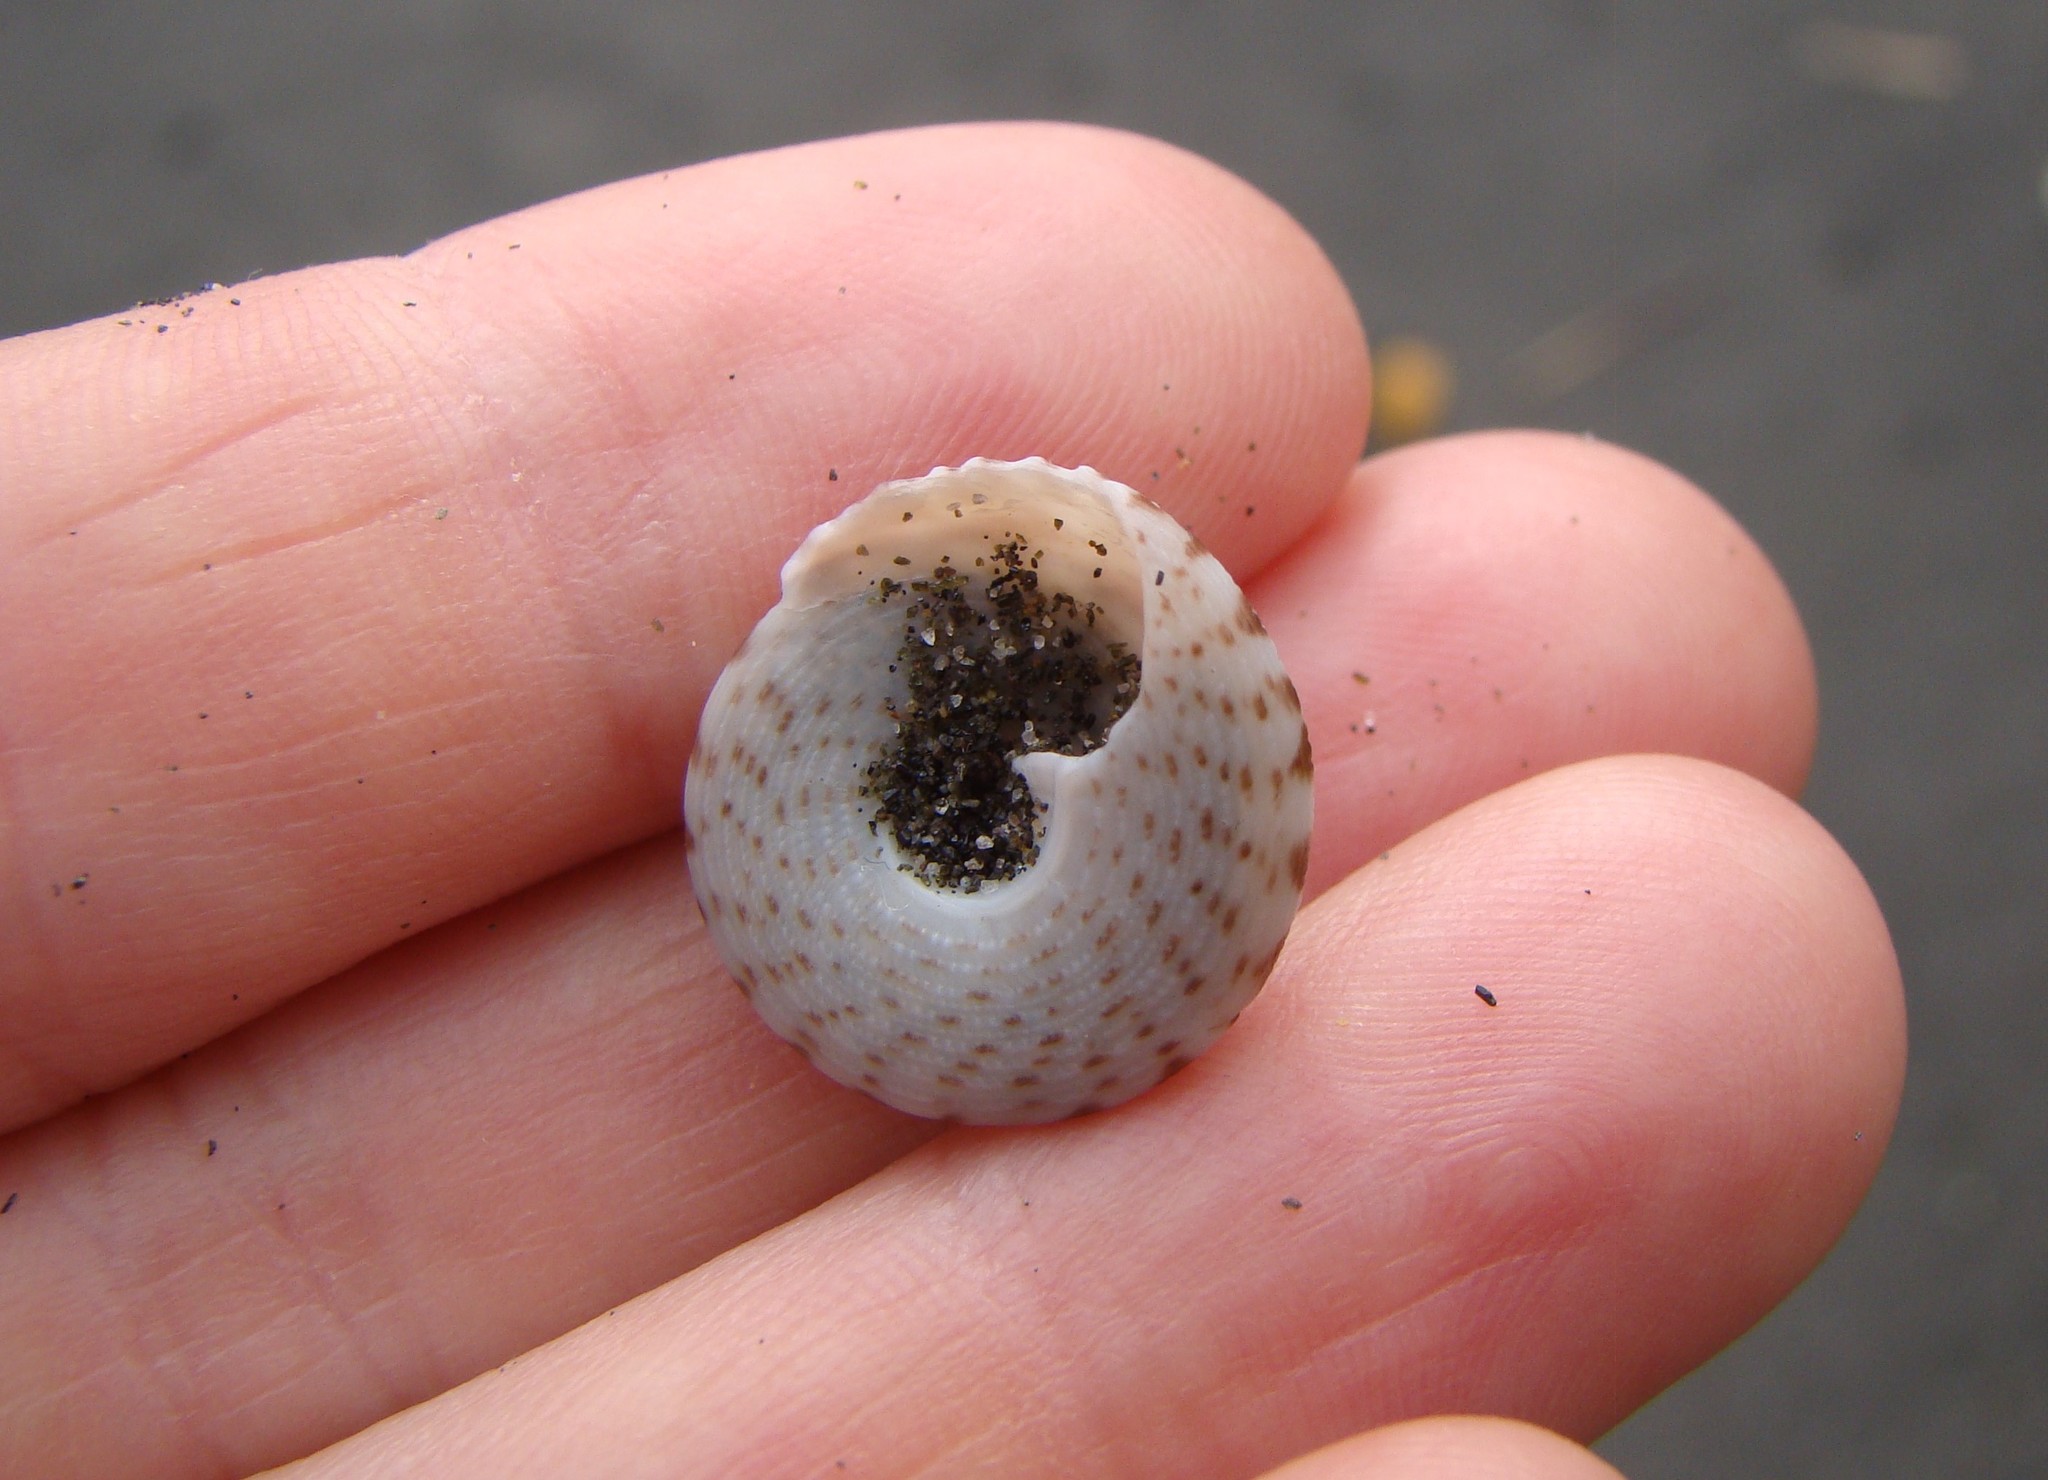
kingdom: Animalia
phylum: Mollusca
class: Gastropoda
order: Trochida
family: Trochidae
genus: Coelotrochus
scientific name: Coelotrochus tiaratus
